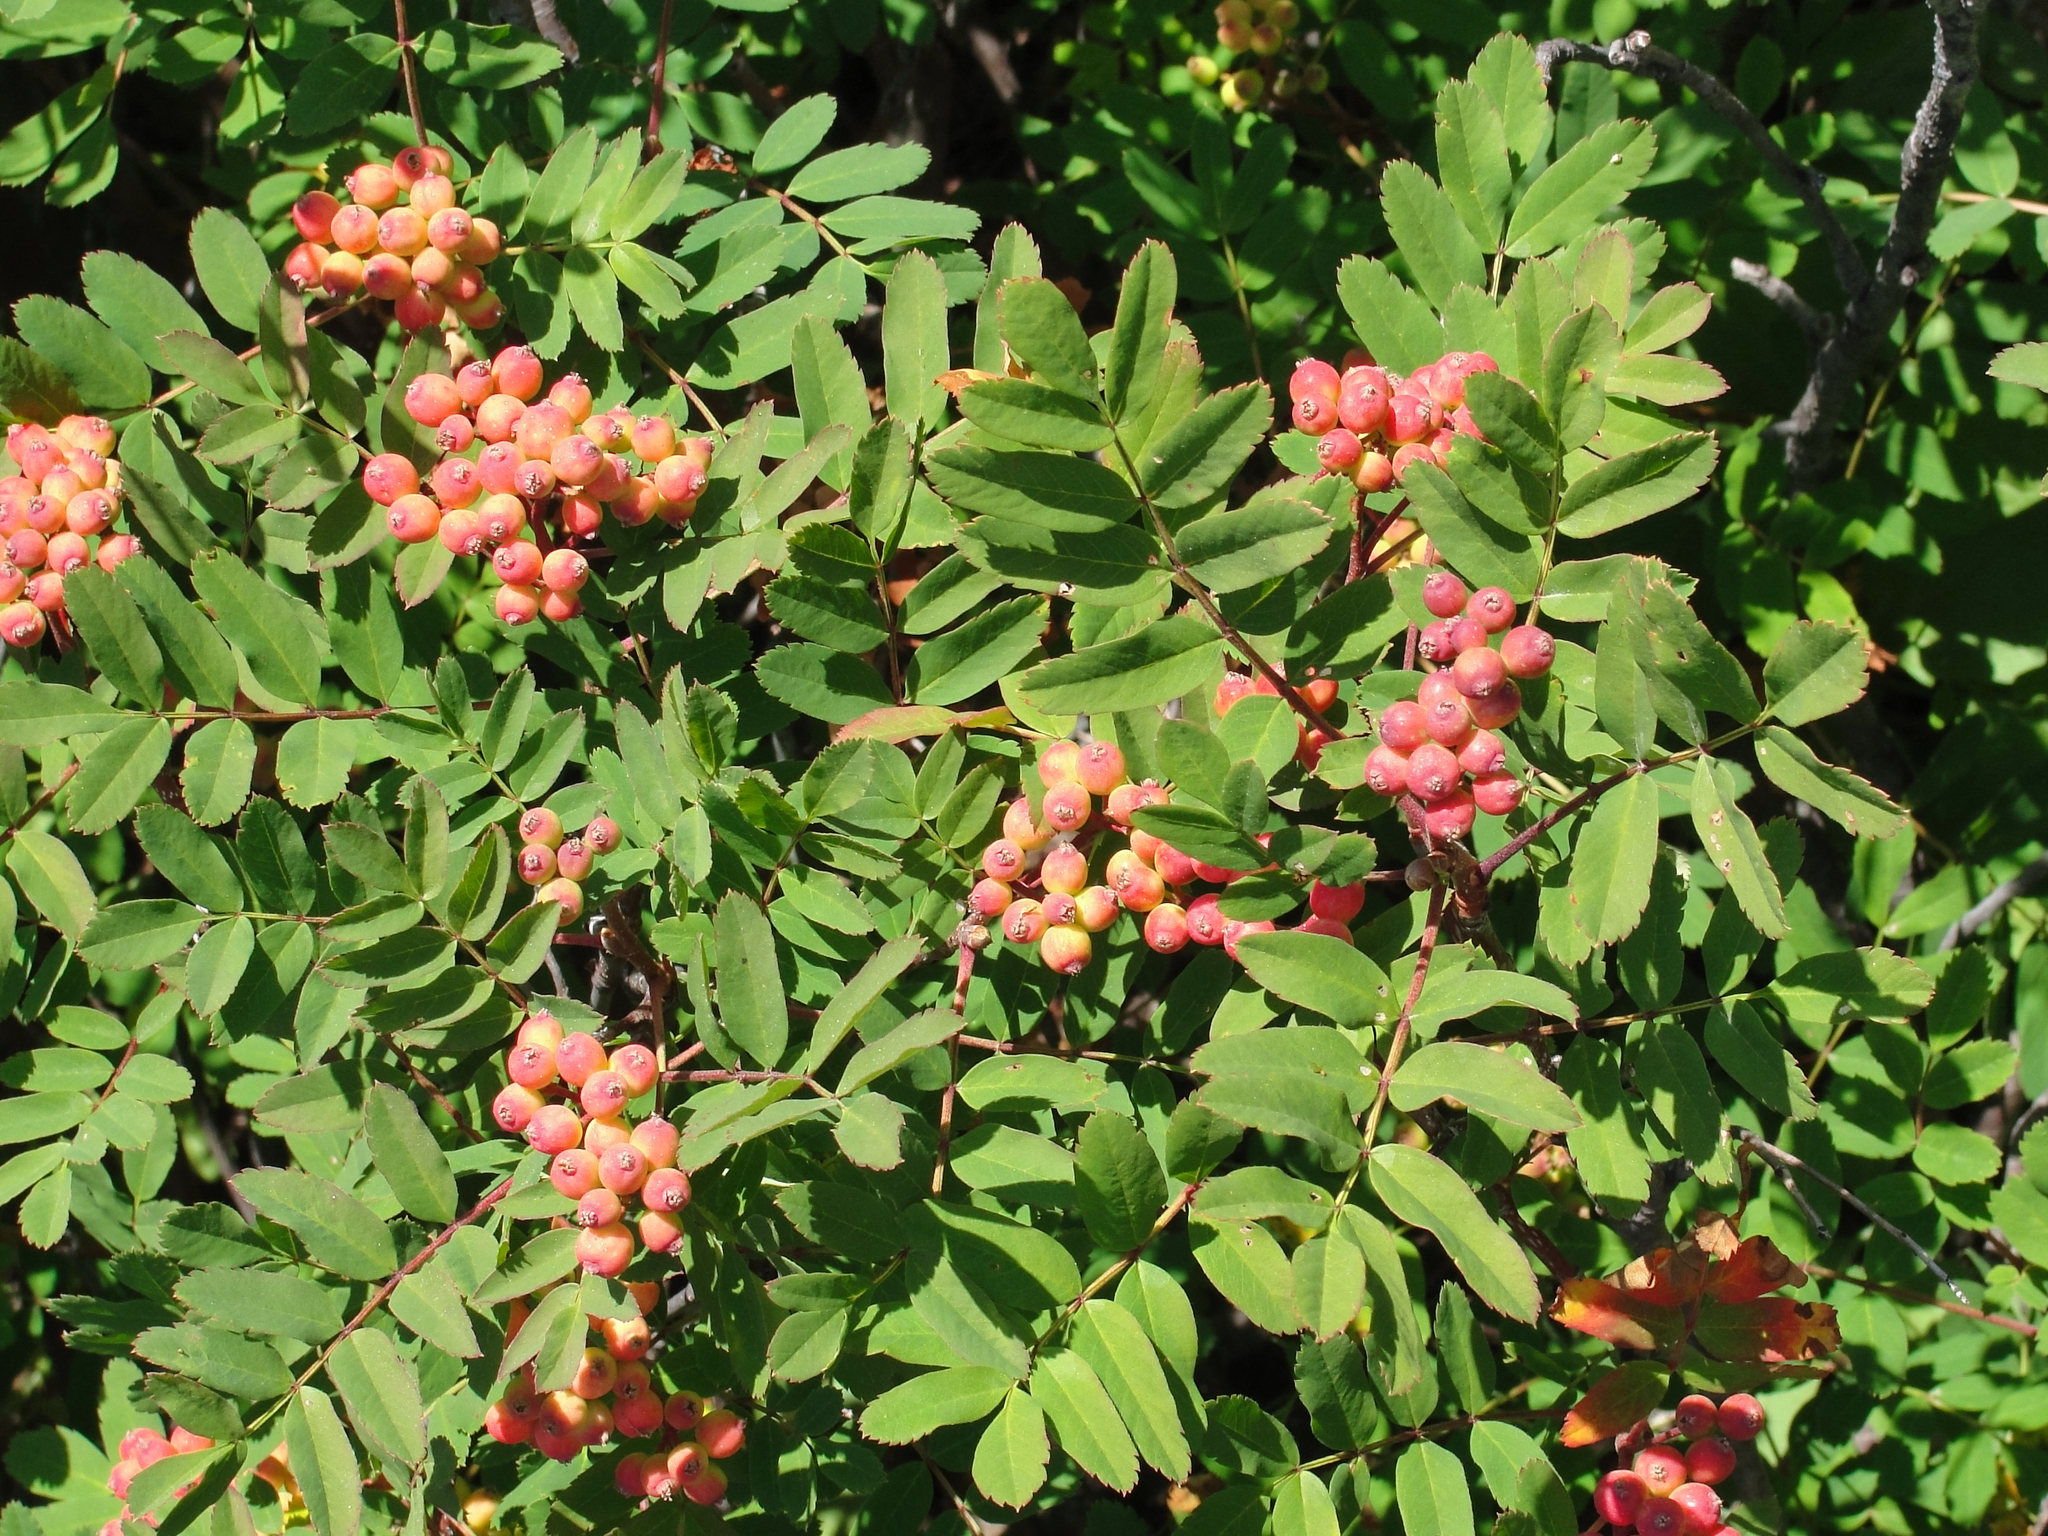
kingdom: Plantae
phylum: Tracheophyta
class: Magnoliopsida
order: Rosales
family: Rosaceae
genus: Sorbus
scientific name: Sorbus sitchensis
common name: Sitka mountain-ash
